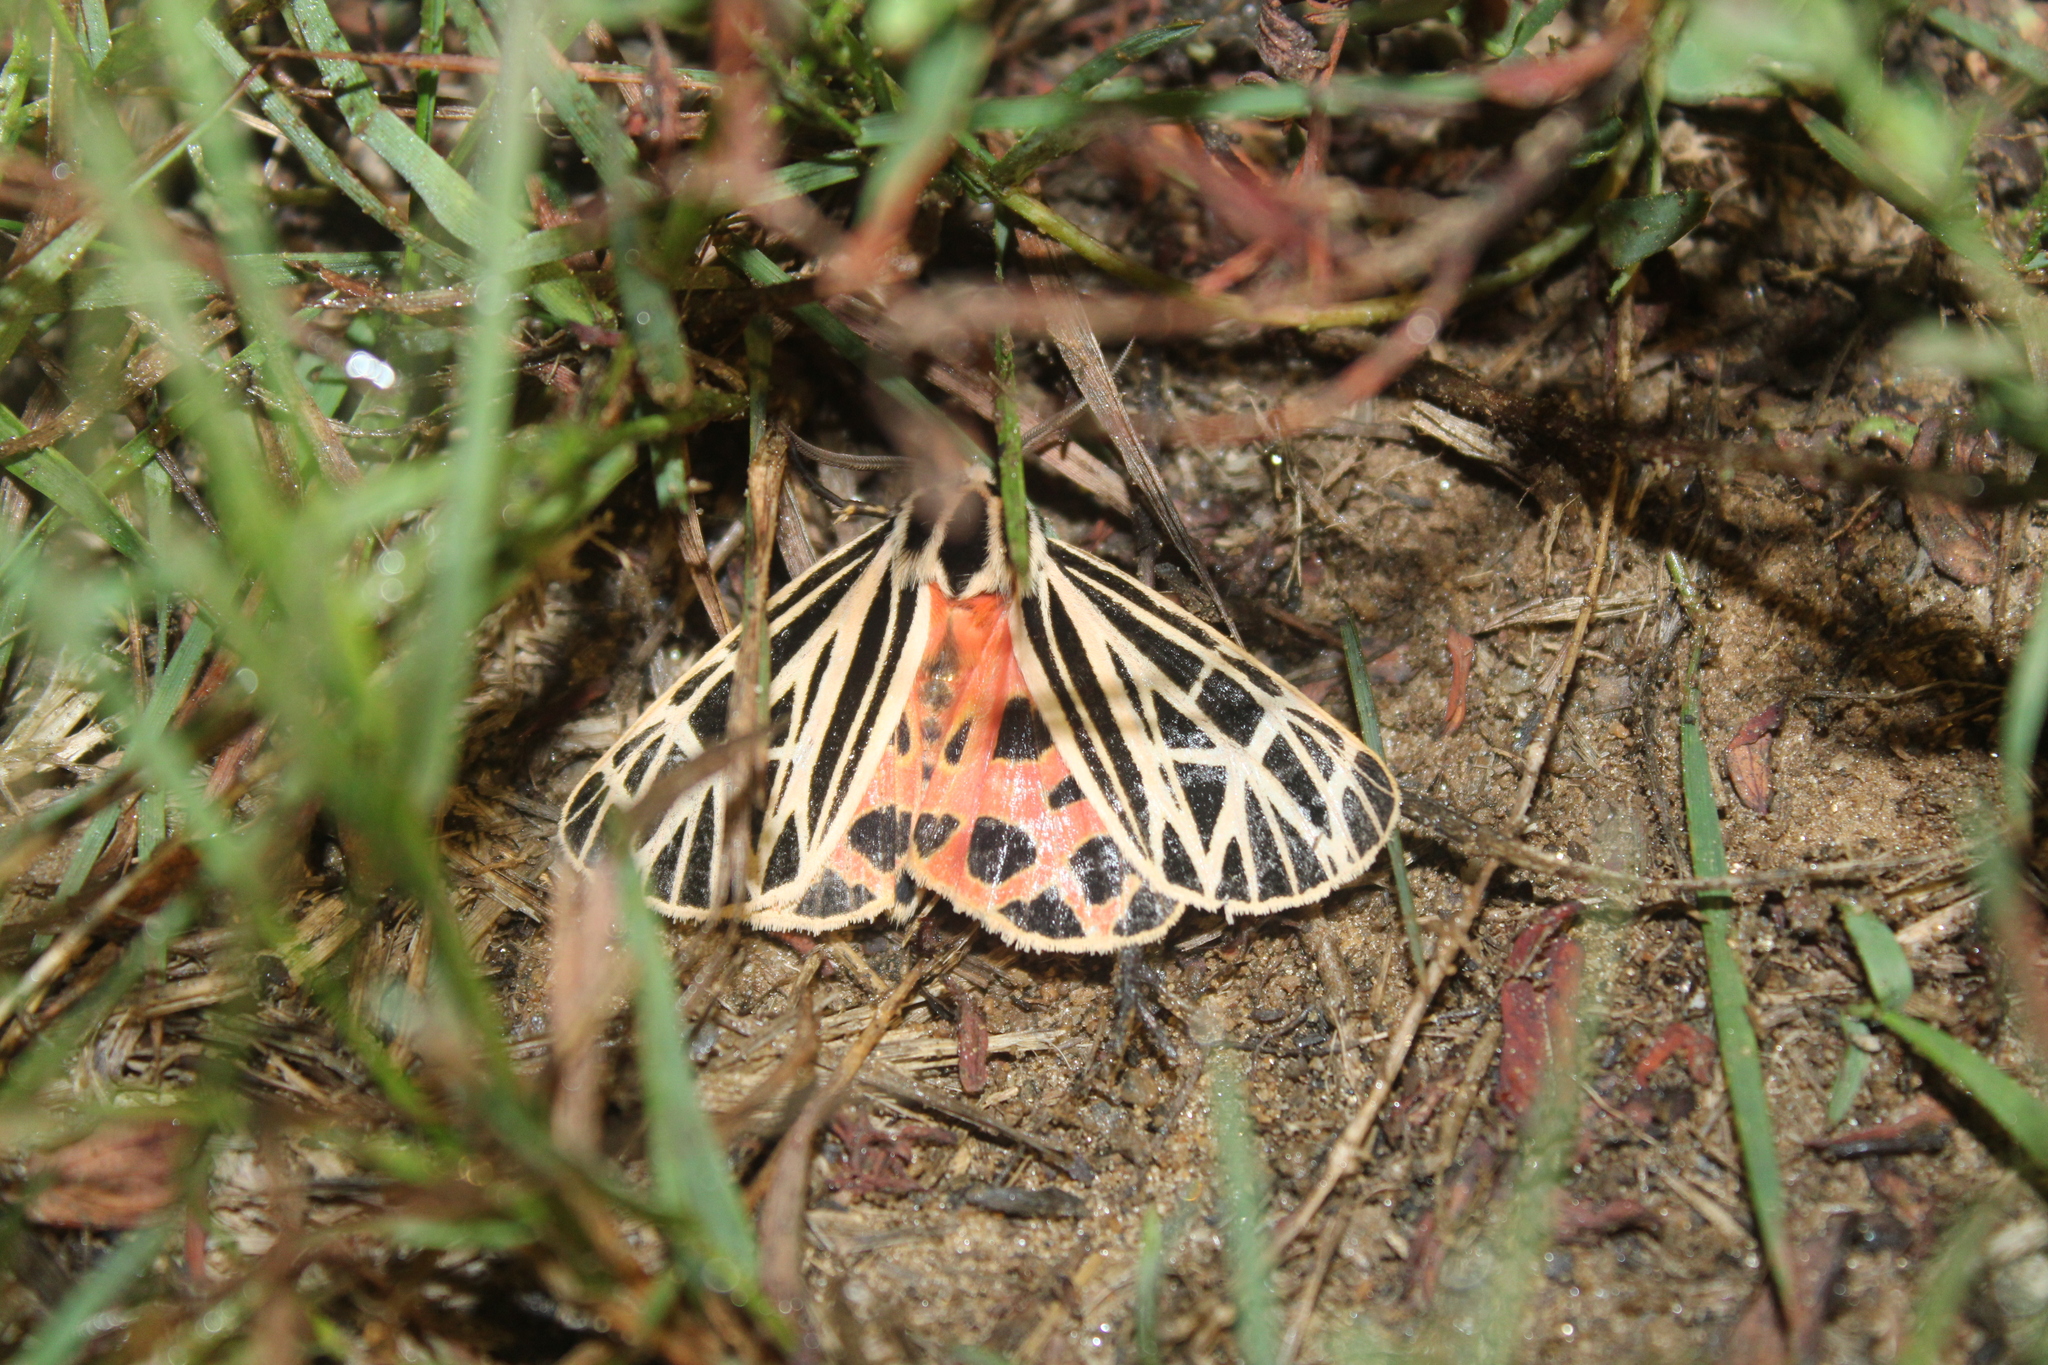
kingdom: Animalia
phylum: Arthropoda
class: Insecta
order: Lepidoptera
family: Erebidae
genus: Grammia
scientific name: Grammia virgo
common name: Virgin tiger moth
